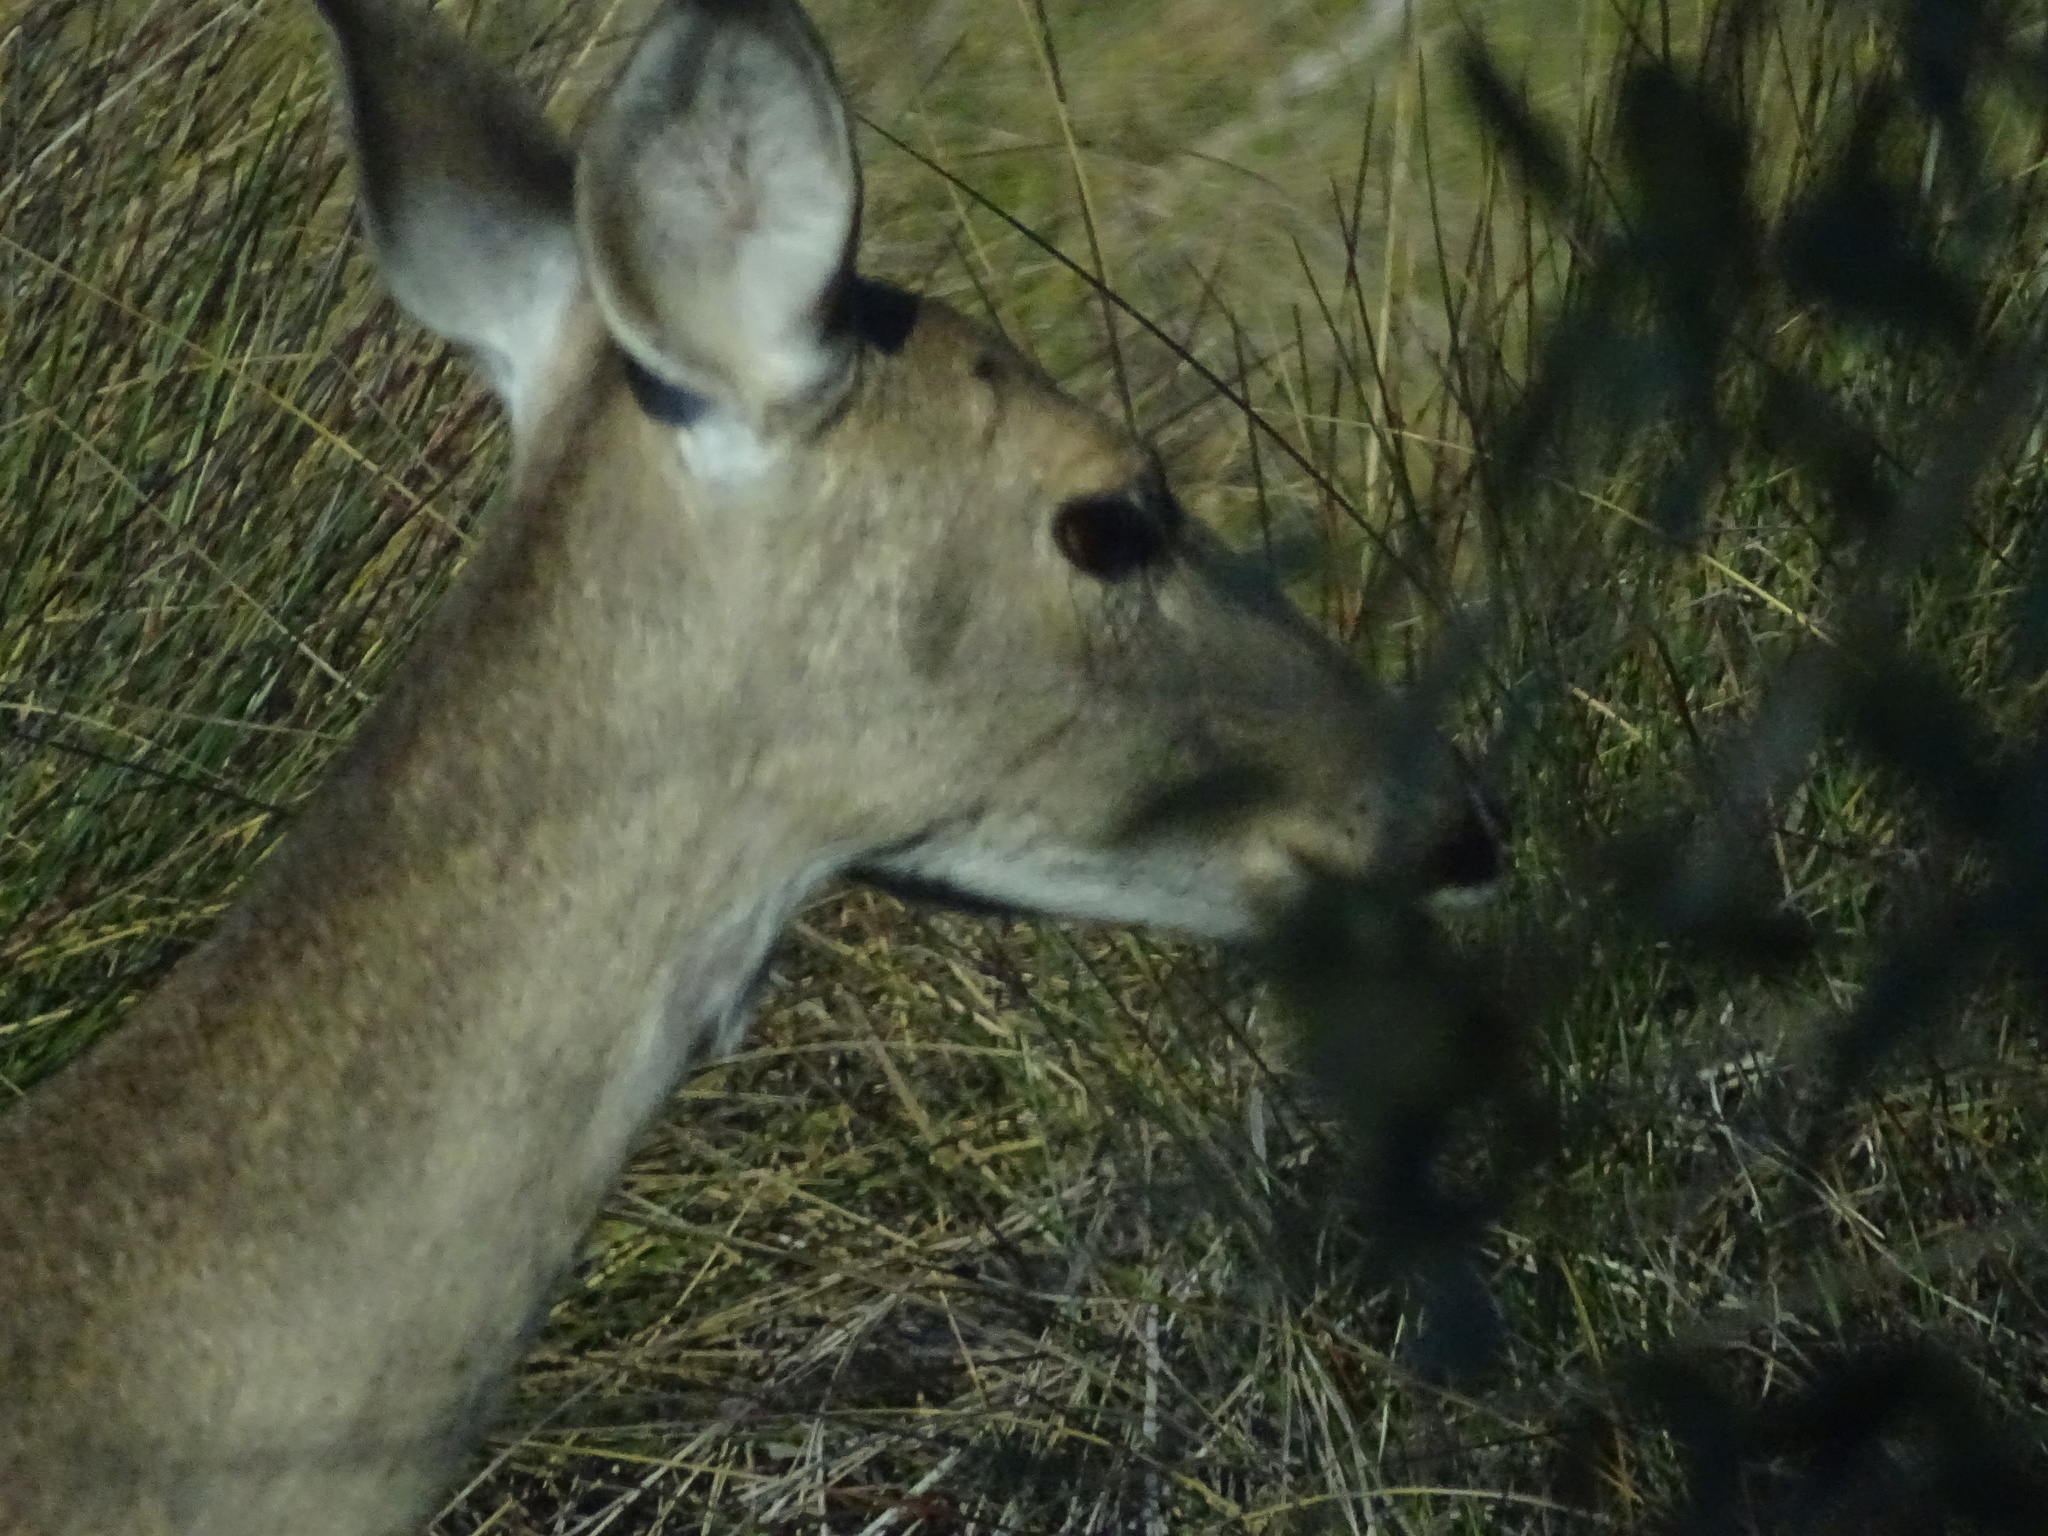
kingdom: Animalia
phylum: Chordata
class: Mammalia
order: Artiodactyla
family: Cervidae
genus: Odocoileus
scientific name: Odocoileus virginianus
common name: White-tailed deer
